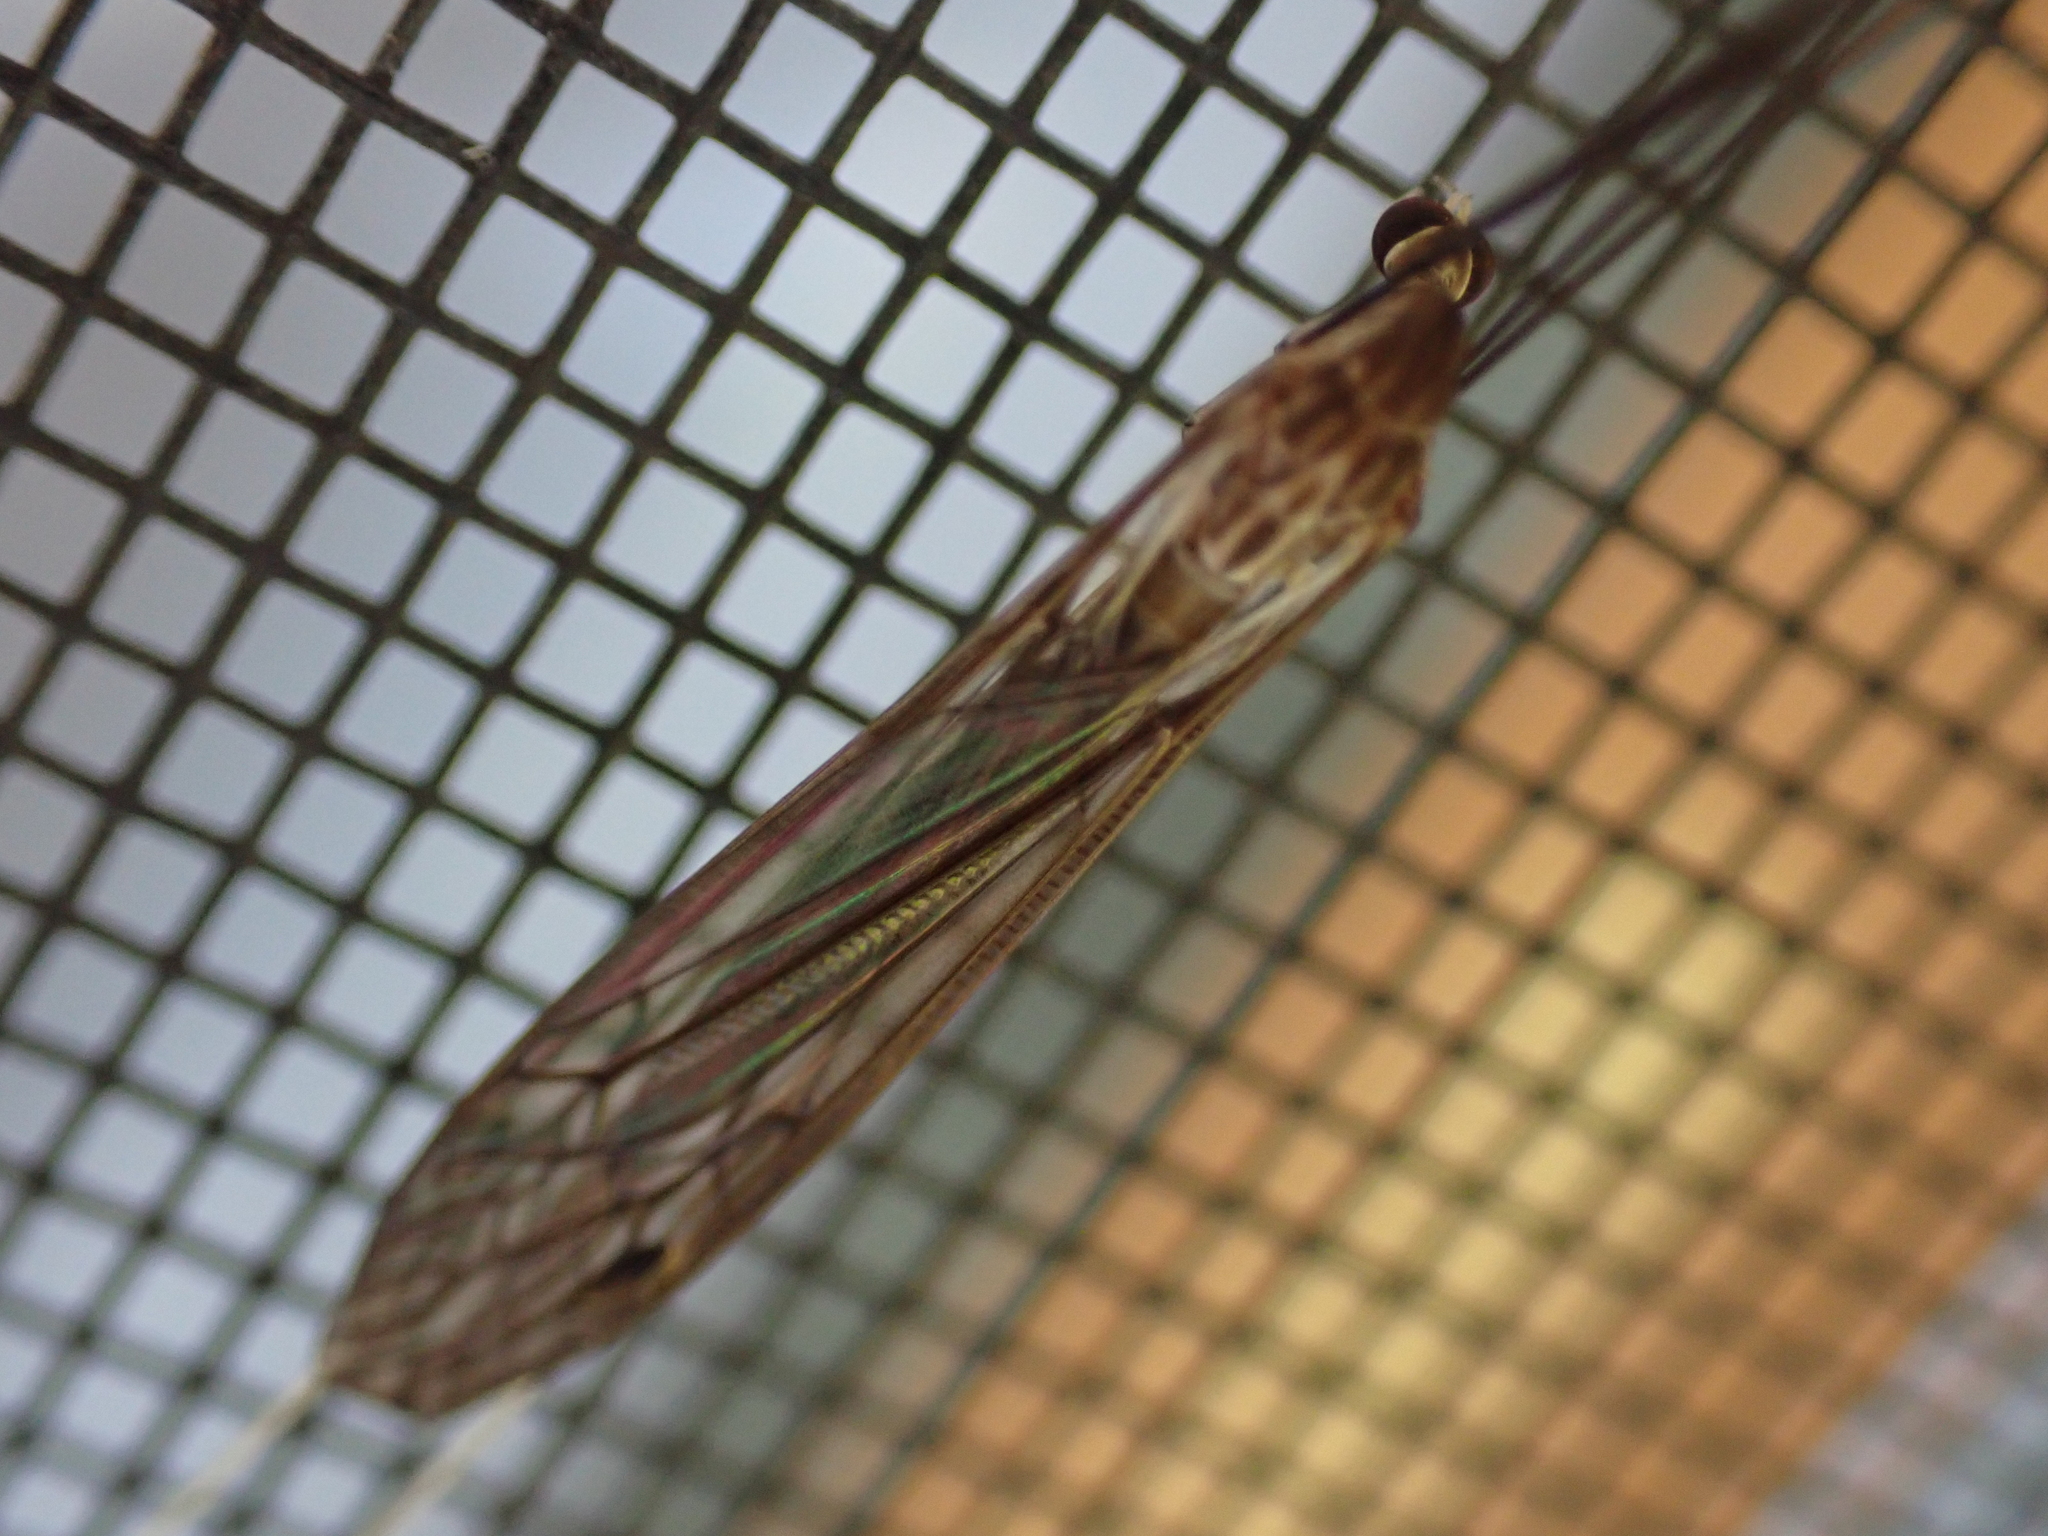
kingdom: Animalia
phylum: Arthropoda
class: Insecta
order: Diptera
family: Tipulidae
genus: Brachypremna
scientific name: Brachypremna dispellens
